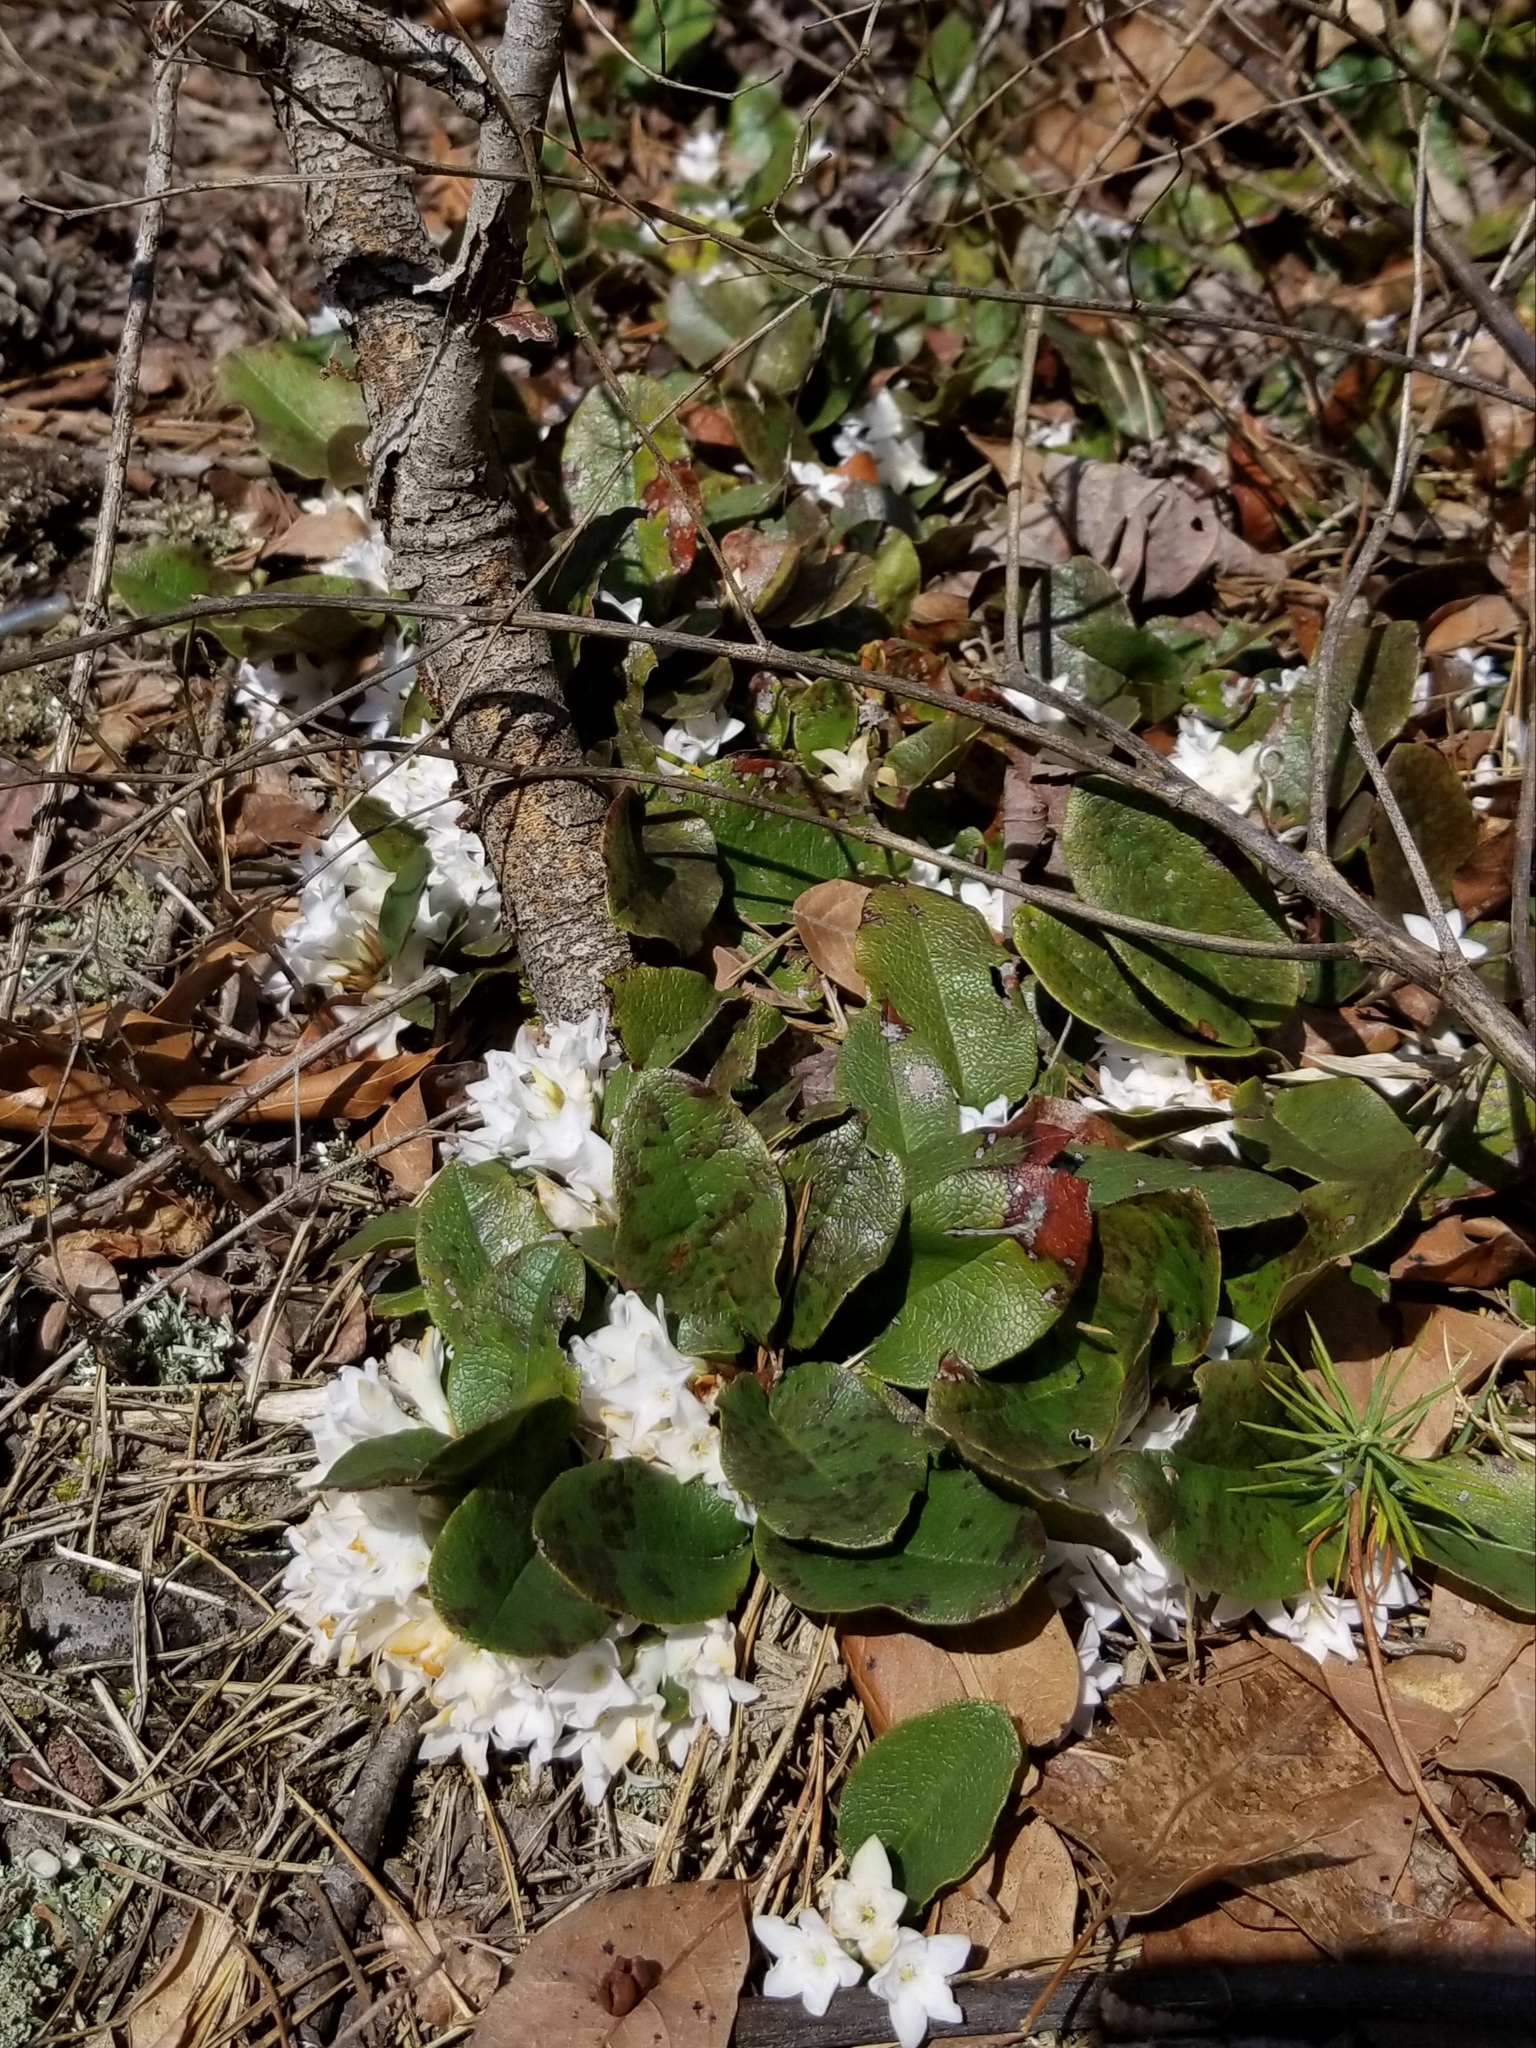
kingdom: Plantae
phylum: Tracheophyta
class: Magnoliopsida
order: Ericales
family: Ericaceae
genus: Epigaea
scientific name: Epigaea repens
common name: Gravelroot
